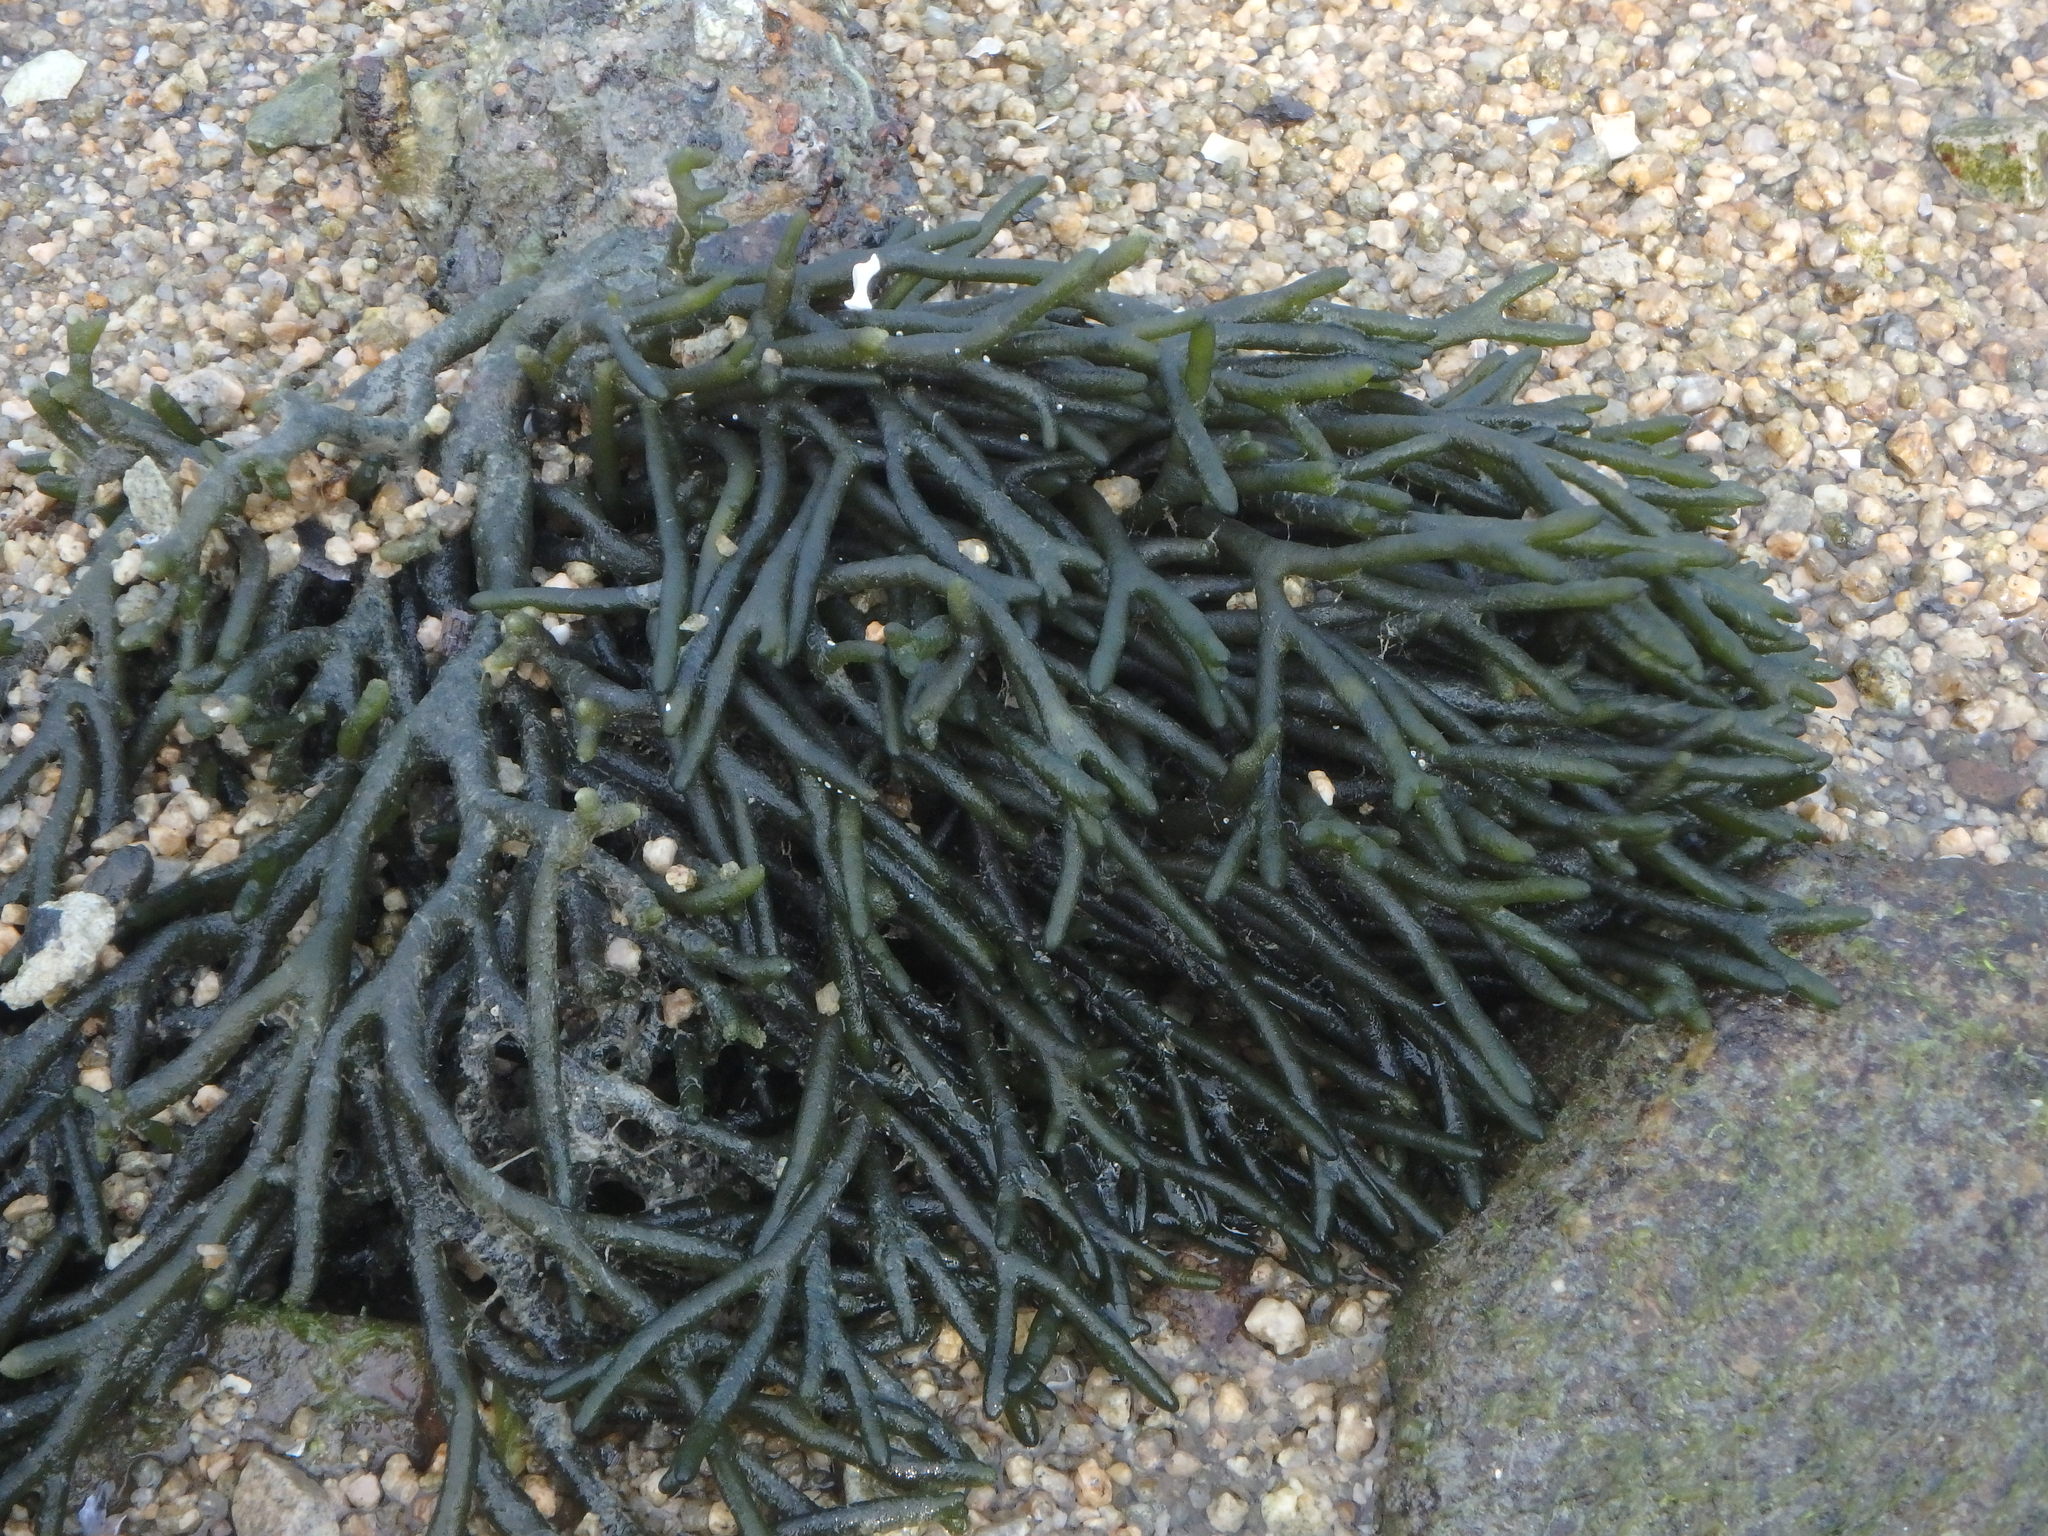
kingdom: Plantae
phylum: Chlorophyta
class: Ulvophyceae
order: Bryopsidales
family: Codiaceae
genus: Codium
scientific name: Codium fragile
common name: Dead man's fingers
